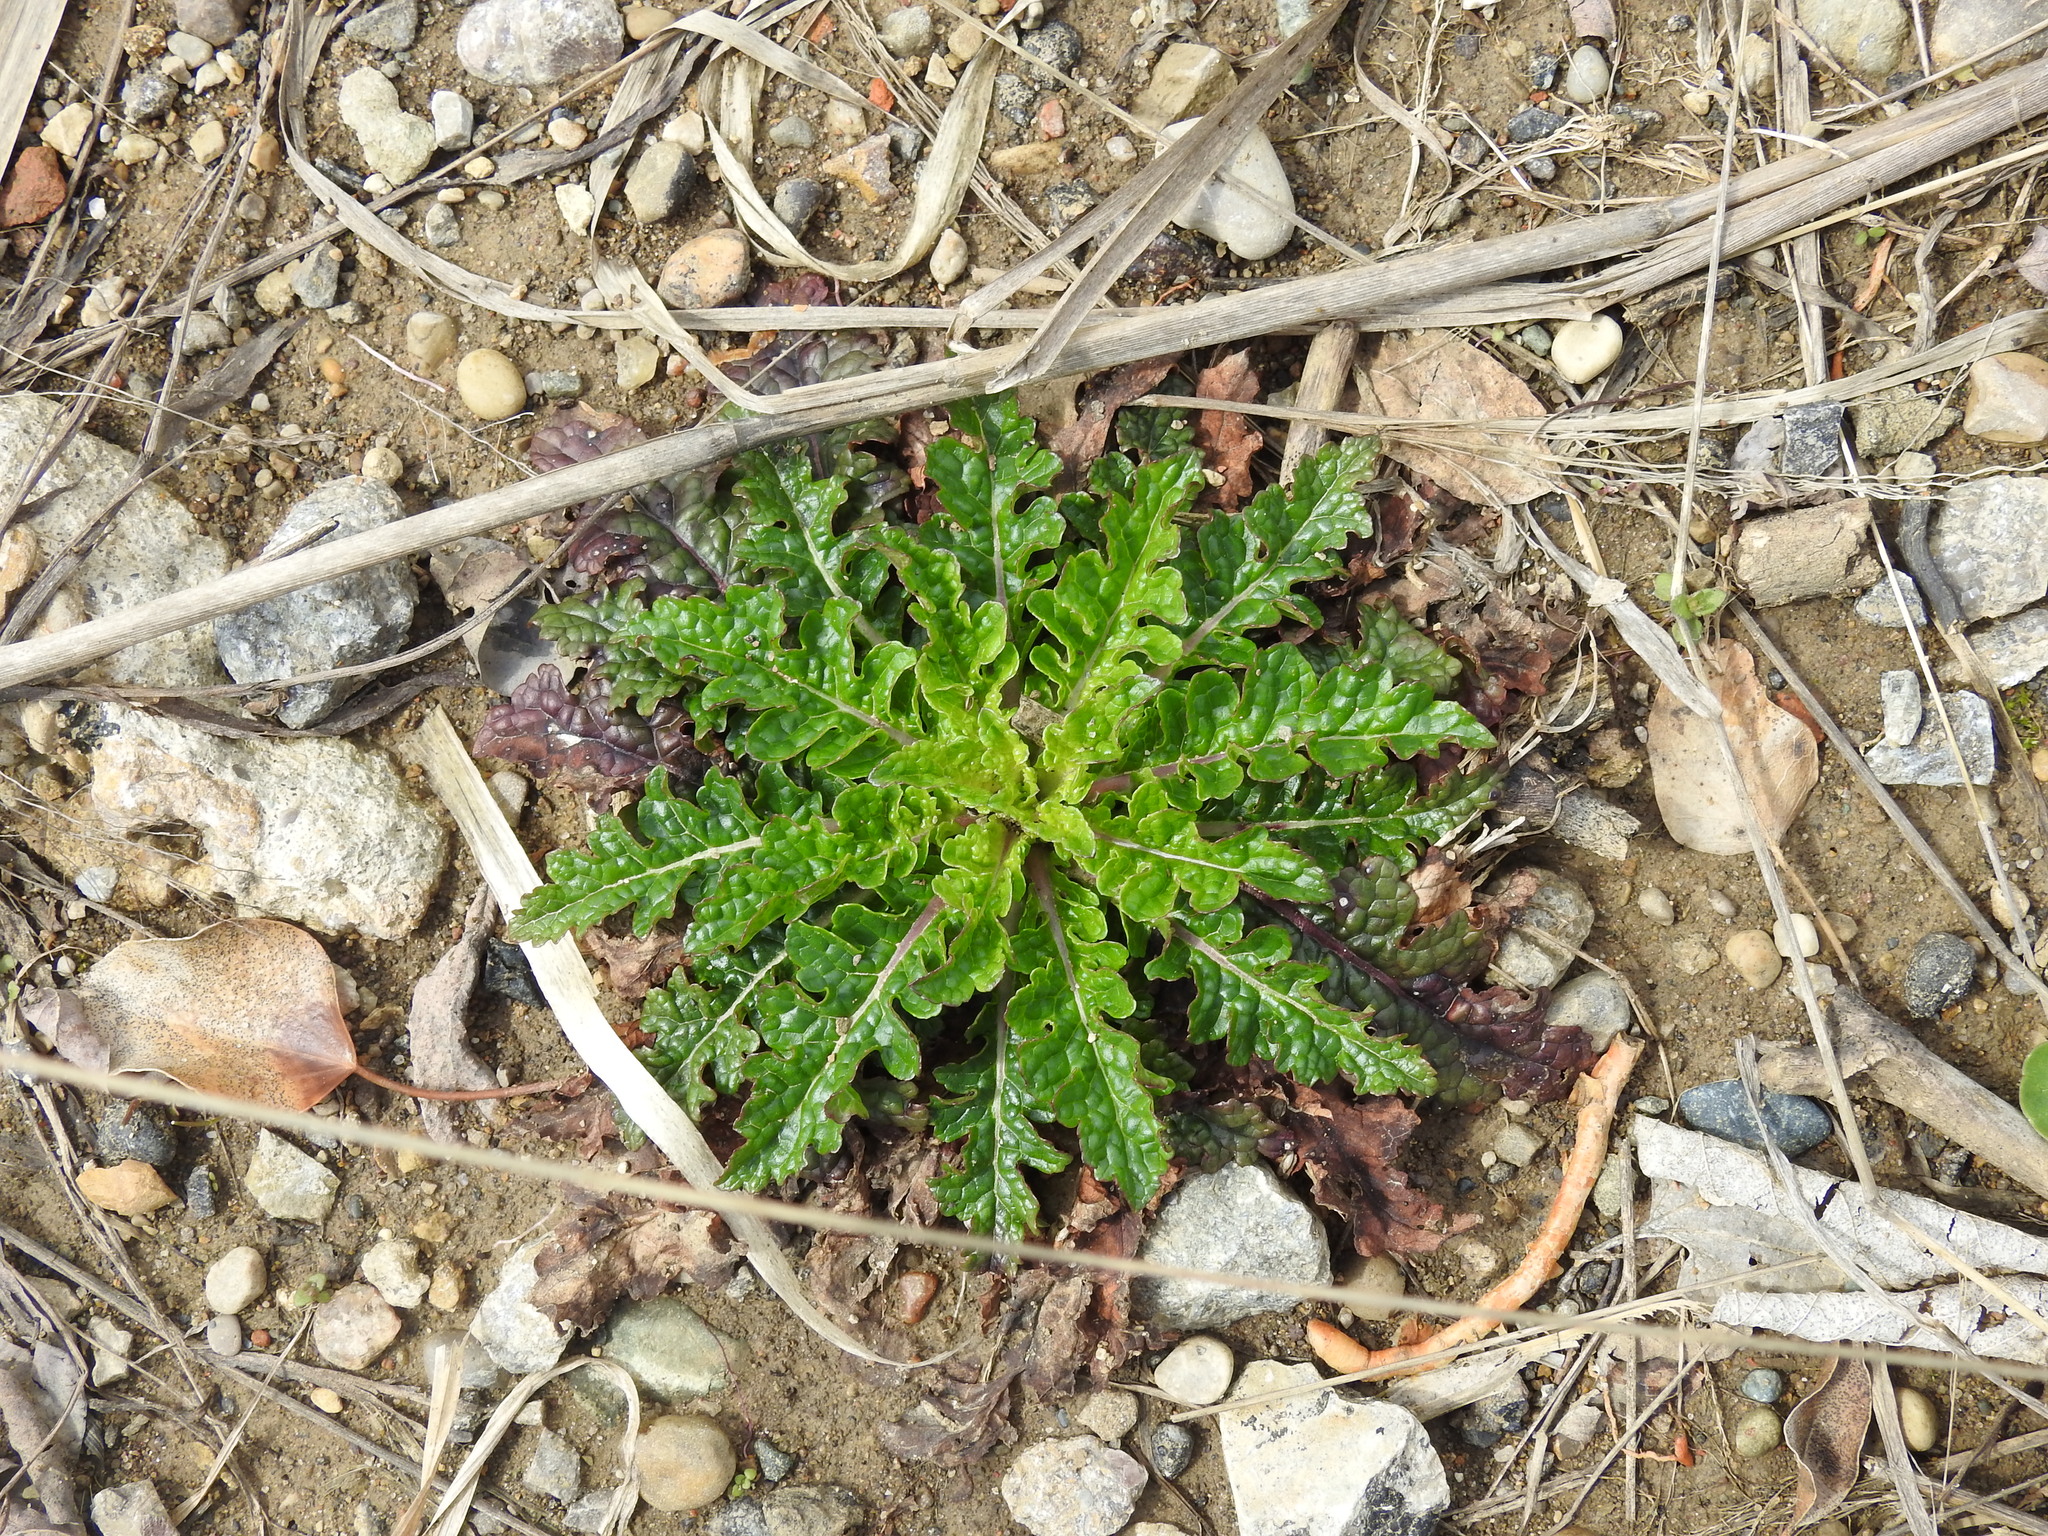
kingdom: Plantae
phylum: Tracheophyta
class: Magnoliopsida
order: Lamiales
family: Scrophulariaceae
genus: Verbascum
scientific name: Verbascum blattaria
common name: Moth mullein
